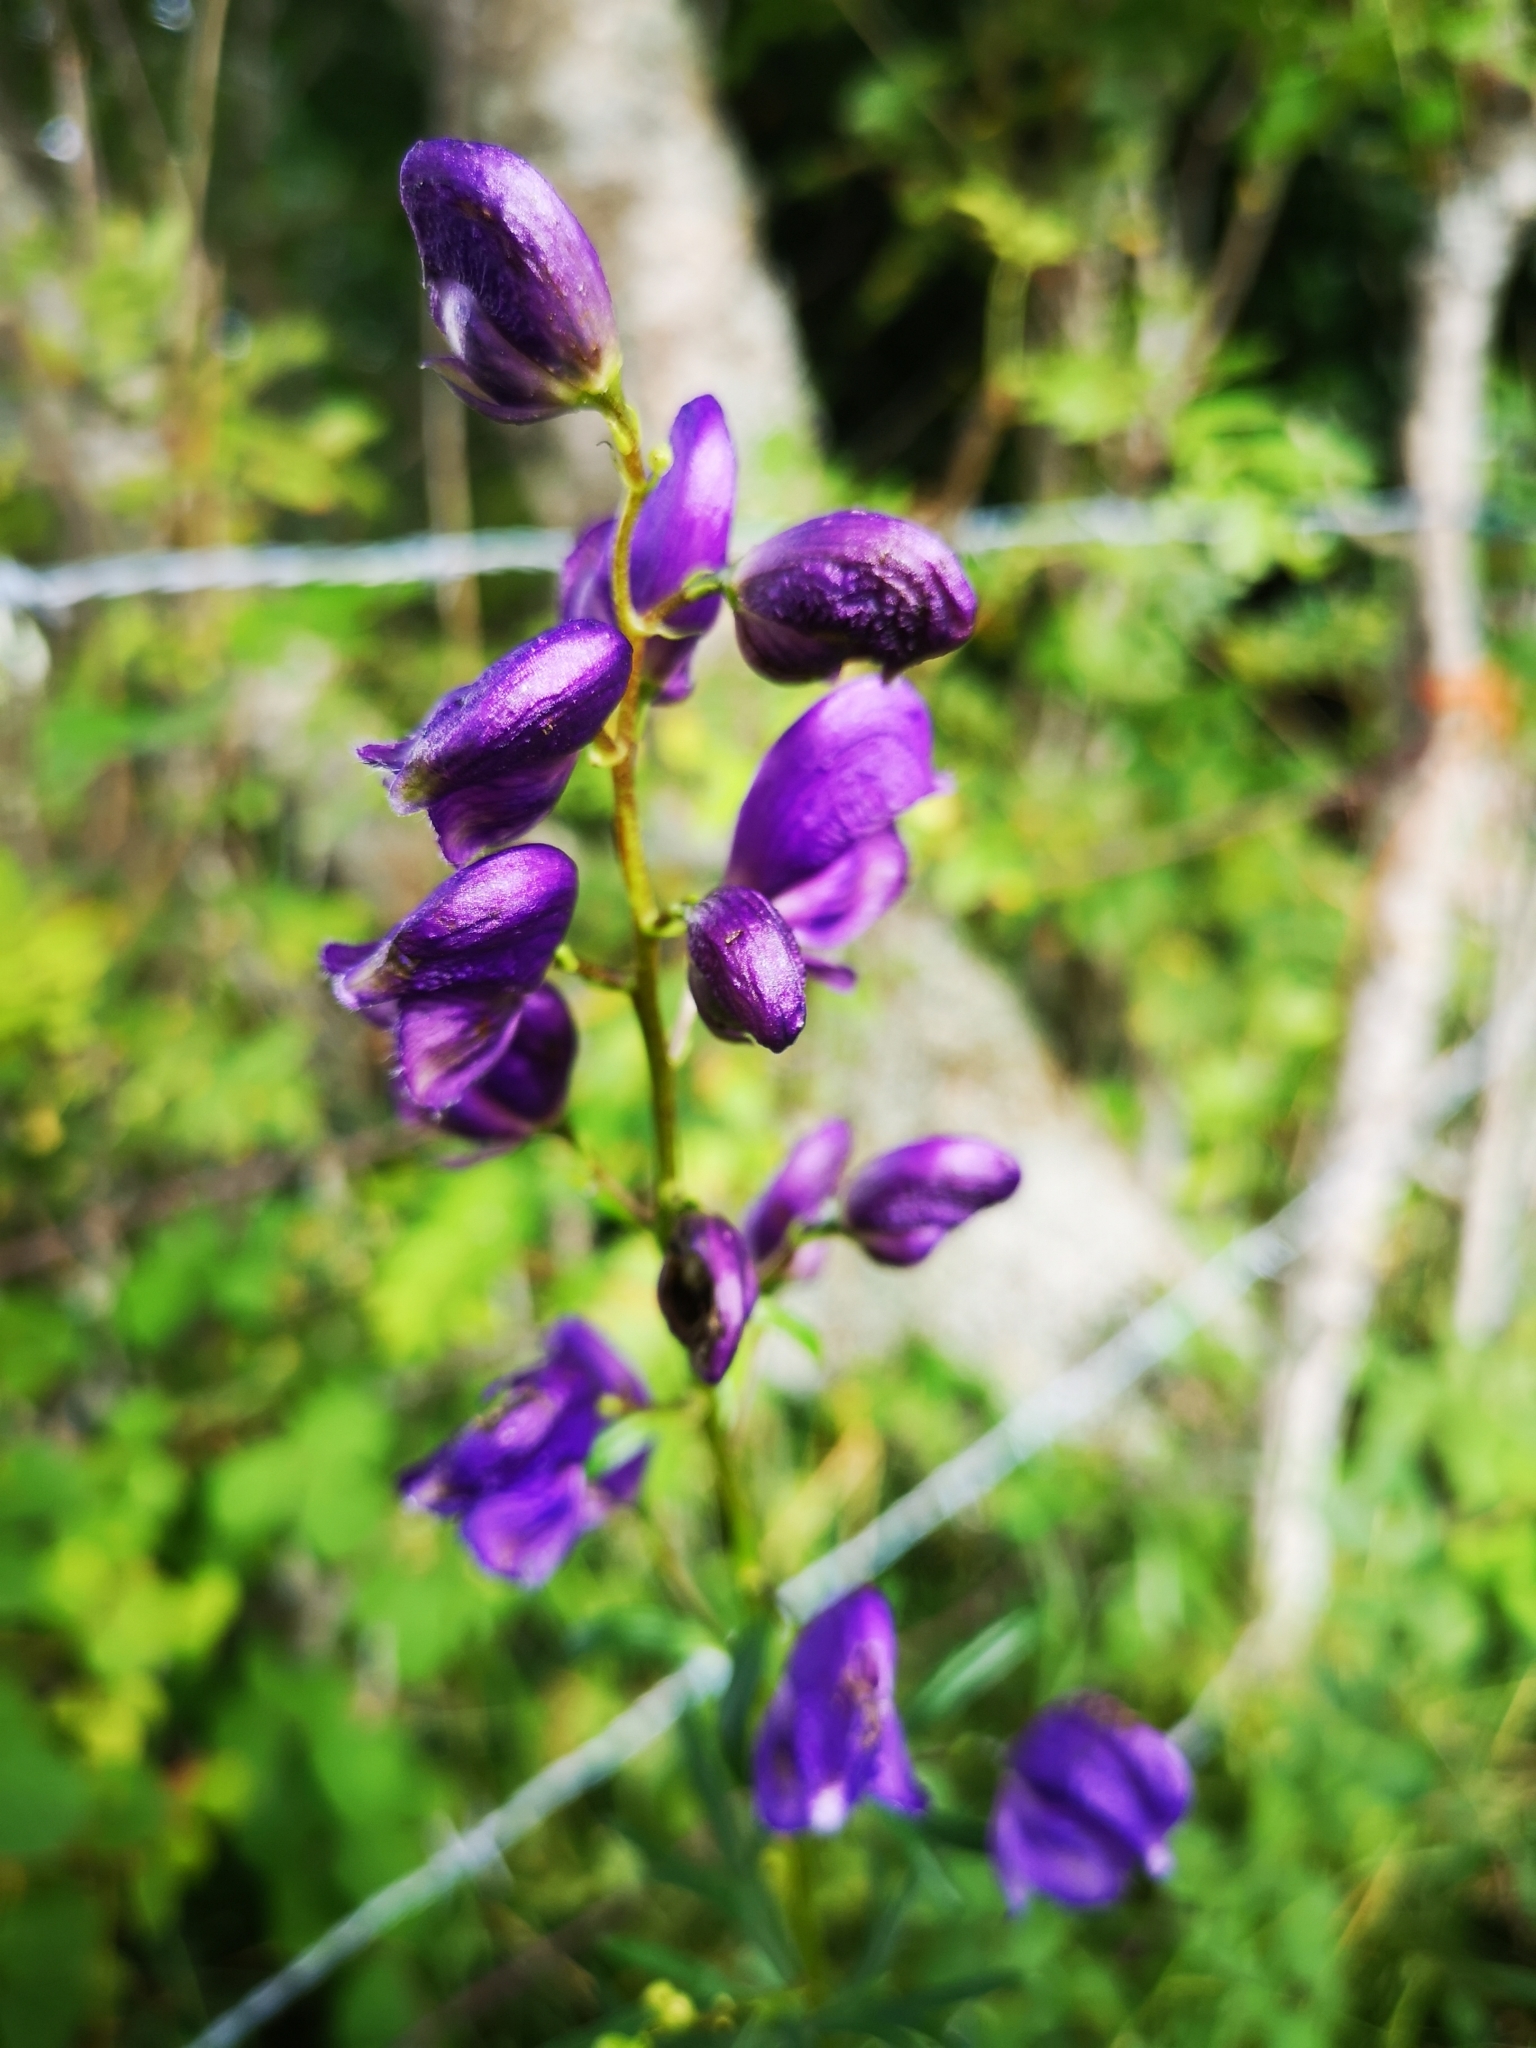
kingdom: Plantae
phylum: Tracheophyta
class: Magnoliopsida
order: Ranunculales
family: Ranunculaceae
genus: Aconitum
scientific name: Aconitum napellus
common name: Garden monkshood
